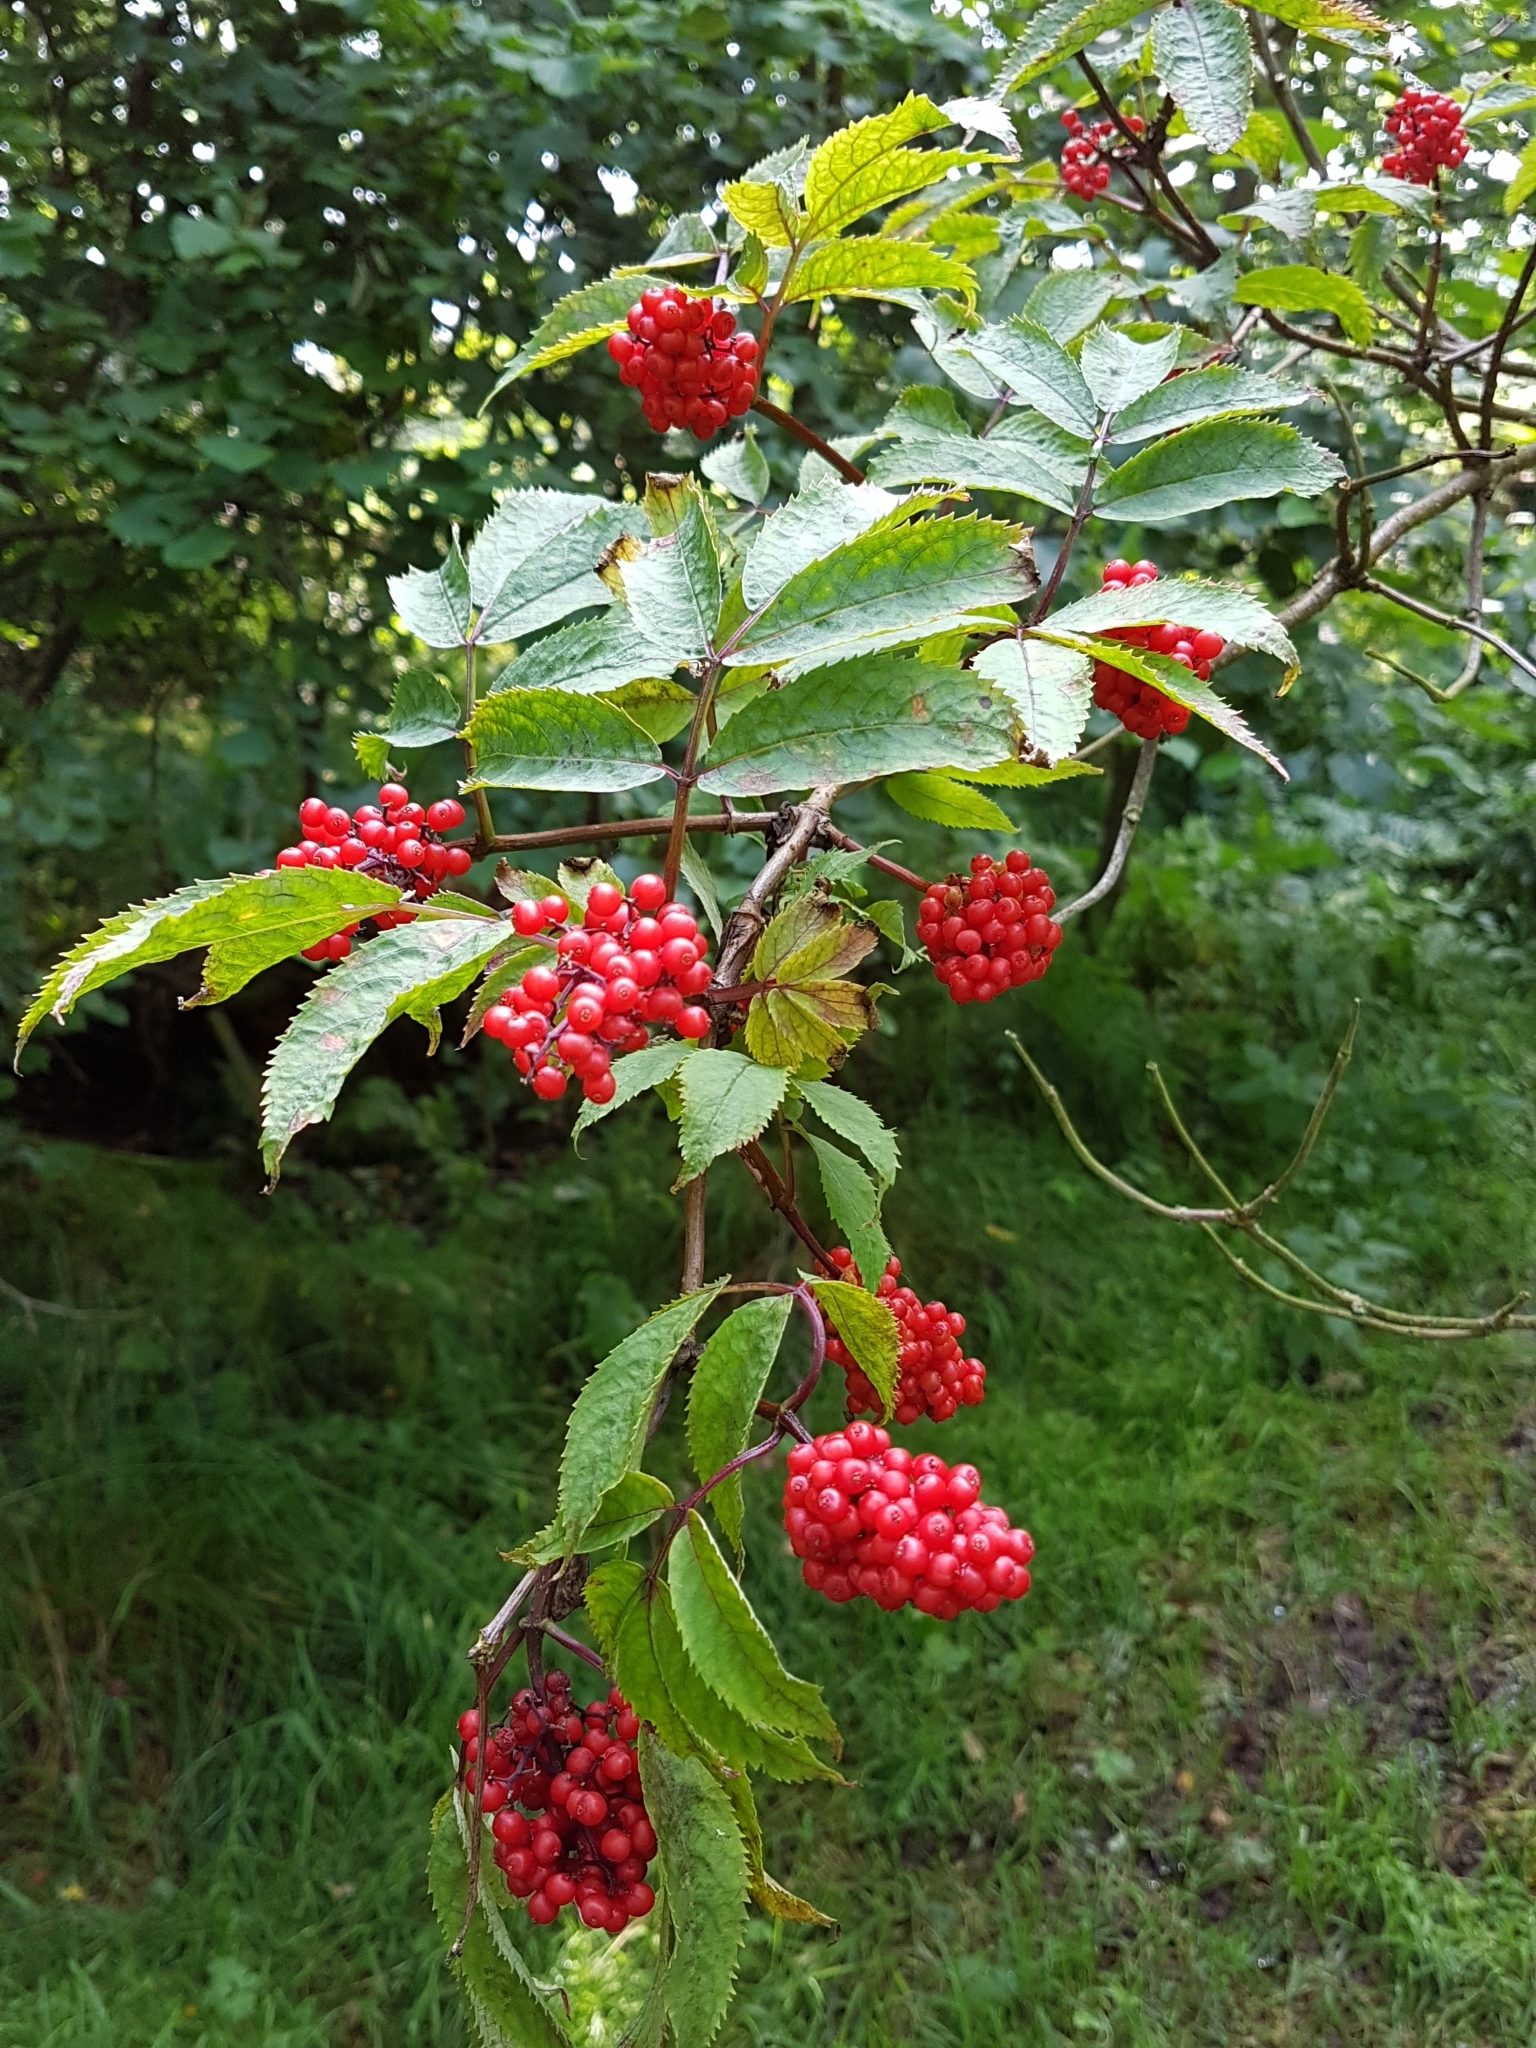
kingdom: Plantae
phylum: Tracheophyta
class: Magnoliopsida
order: Dipsacales
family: Viburnaceae
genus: Sambucus
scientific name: Sambucus racemosa
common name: Red-berried elder
